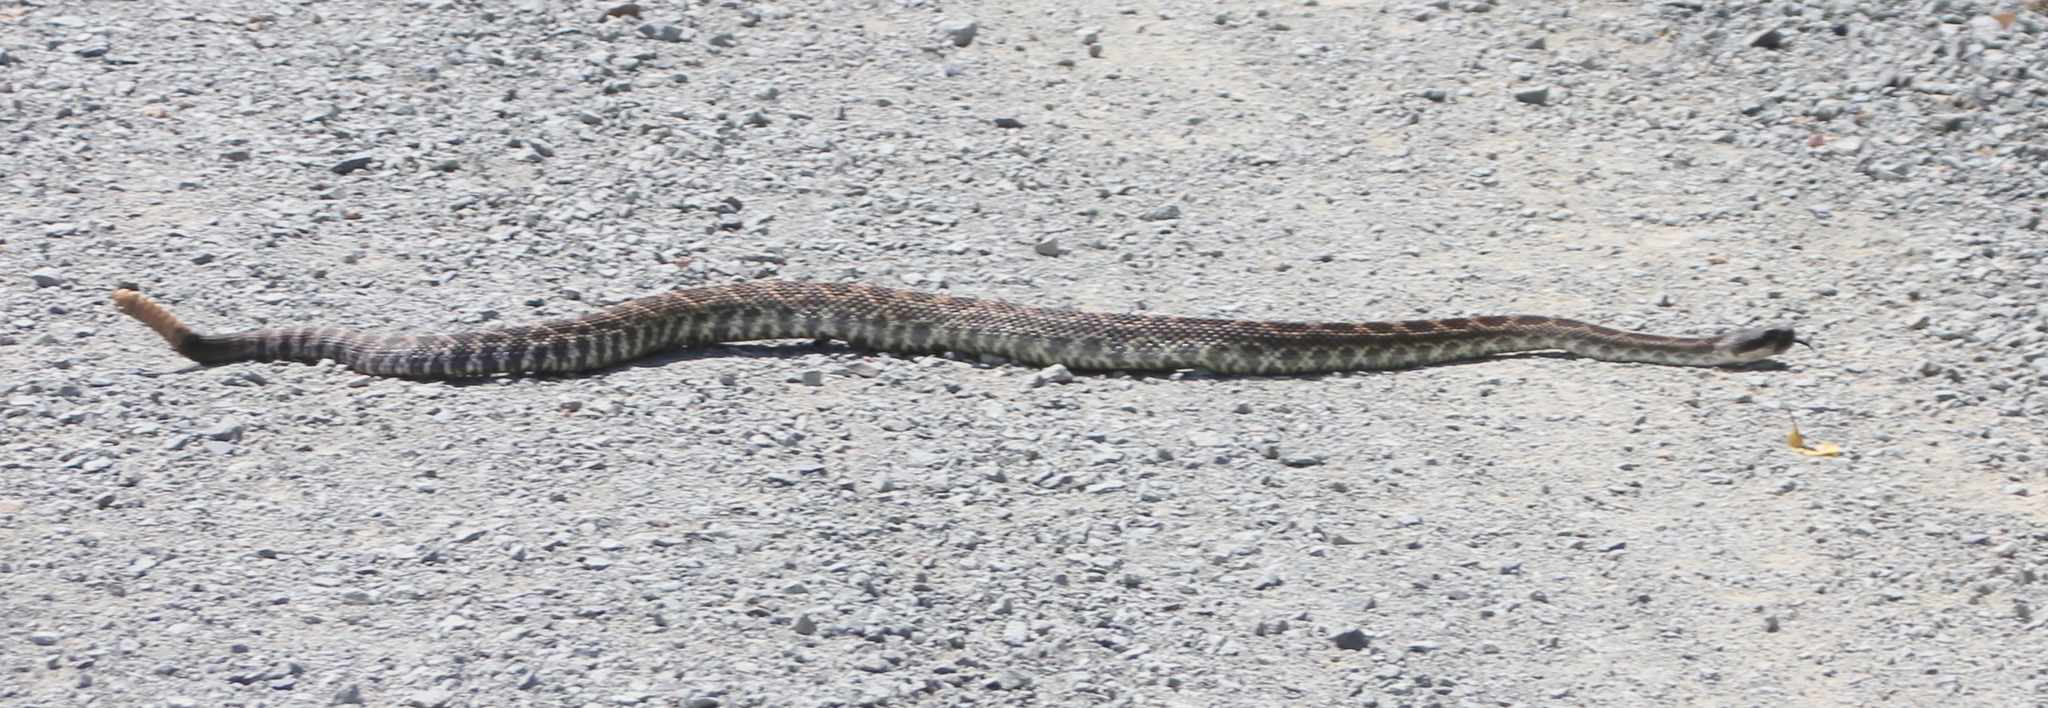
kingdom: Animalia
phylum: Chordata
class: Squamata
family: Viperidae
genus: Crotalus
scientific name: Crotalus oreganus
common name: Abyssus
